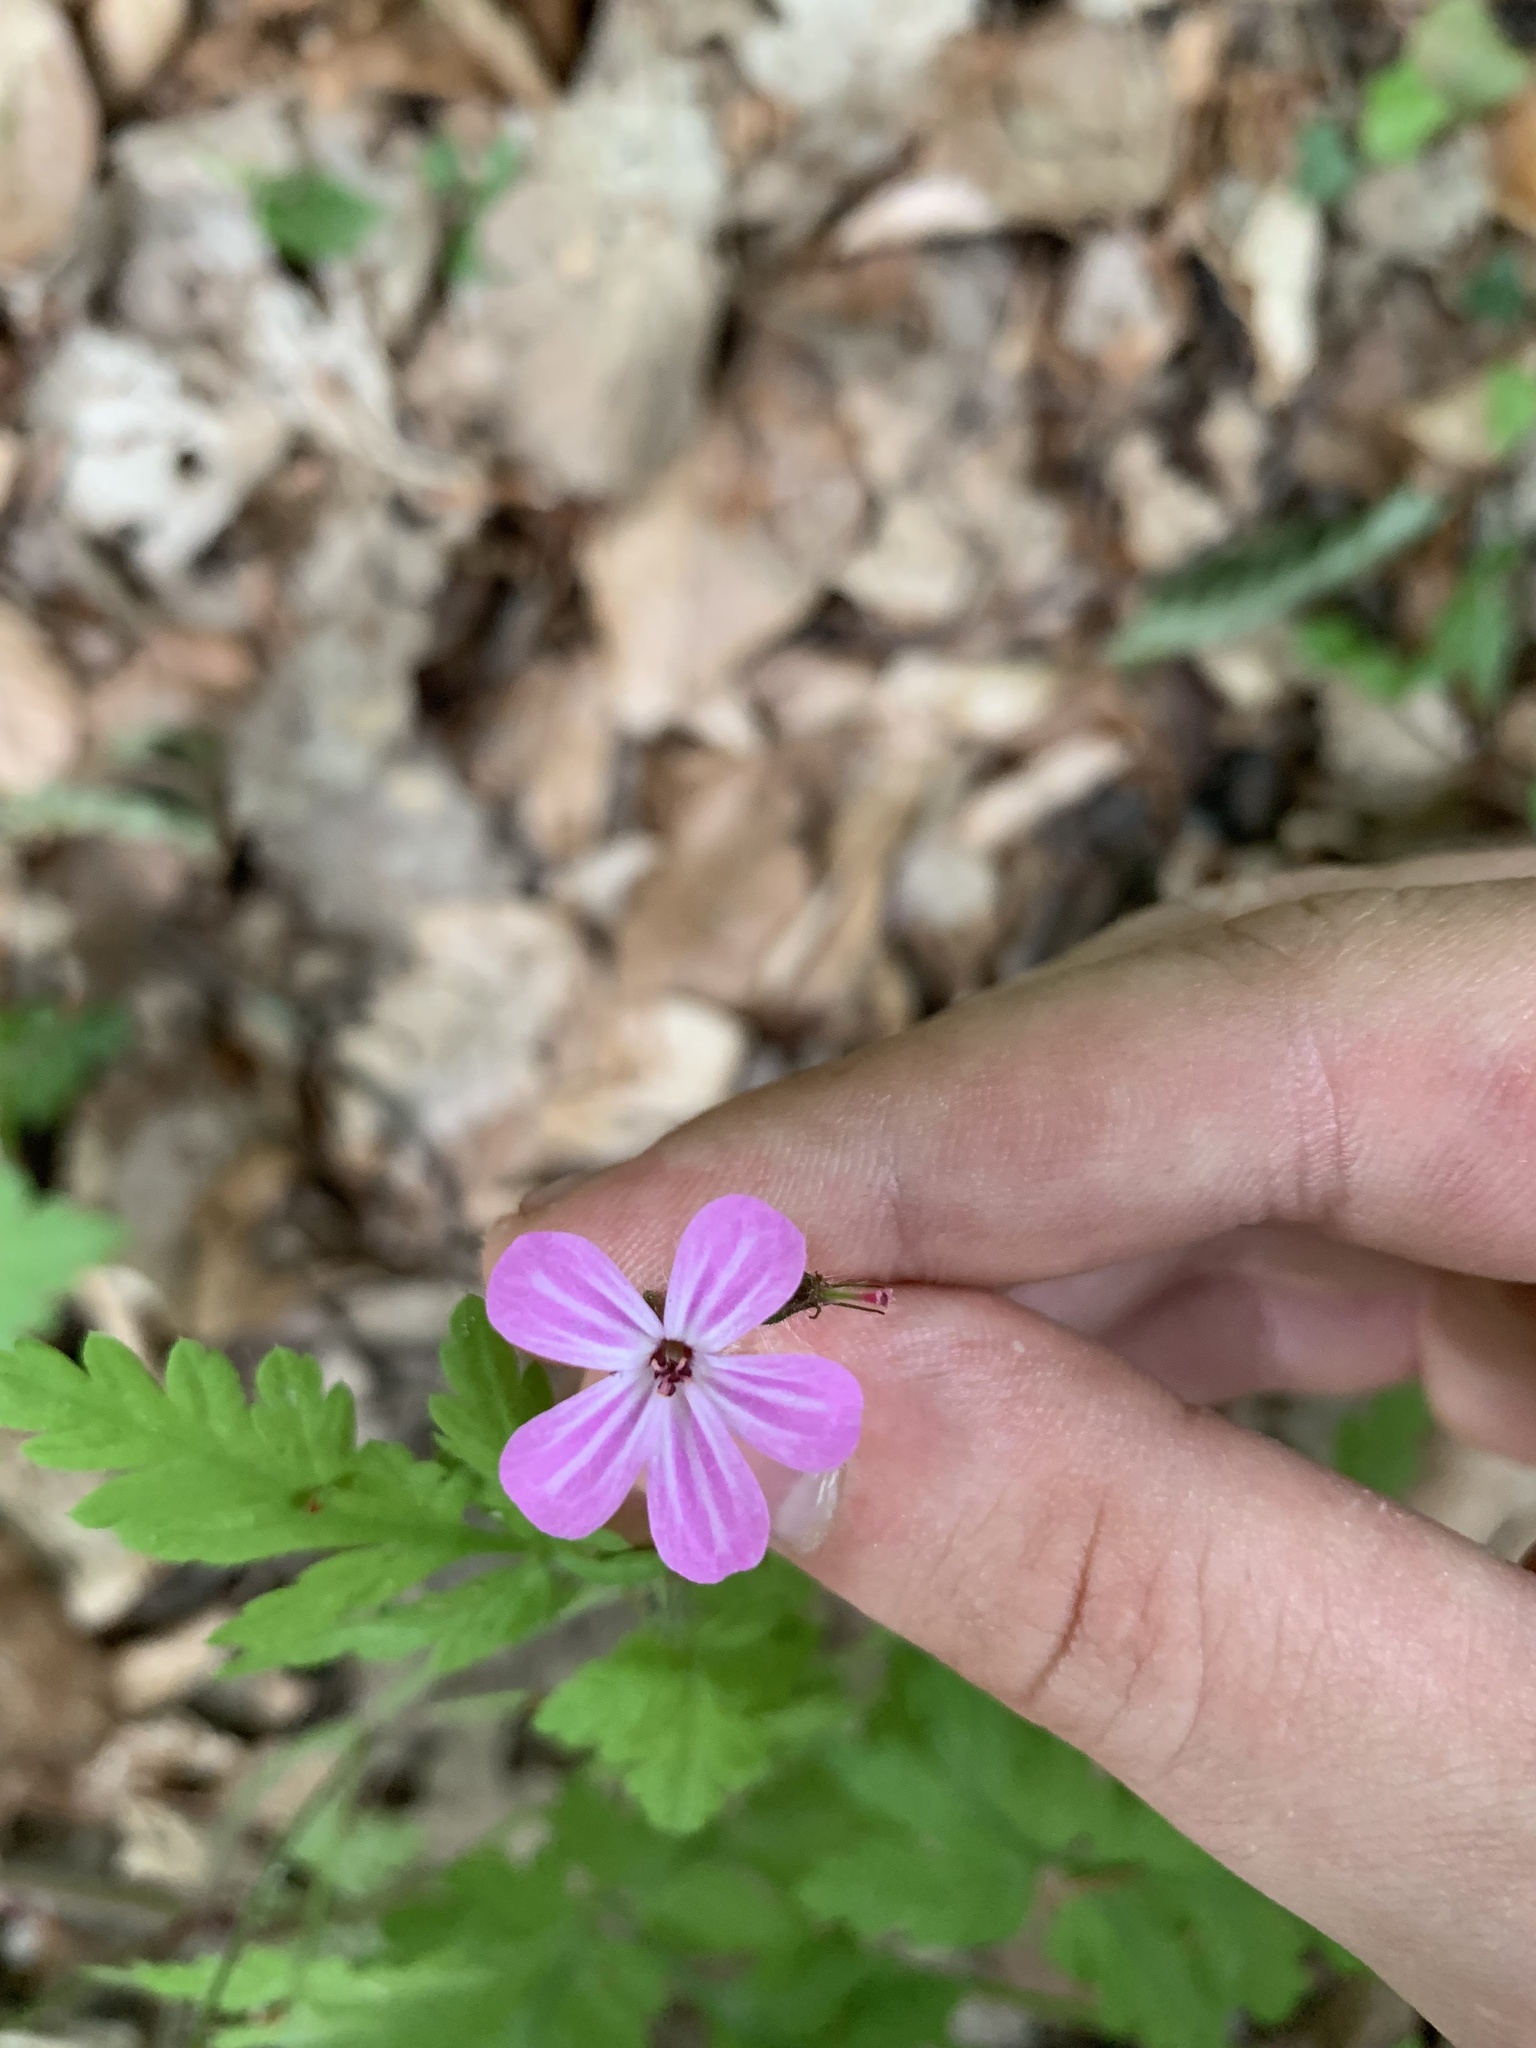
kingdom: Plantae
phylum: Tracheophyta
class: Magnoliopsida
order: Geraniales
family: Geraniaceae
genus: Geranium
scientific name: Geranium robertianum
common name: Herb-robert
